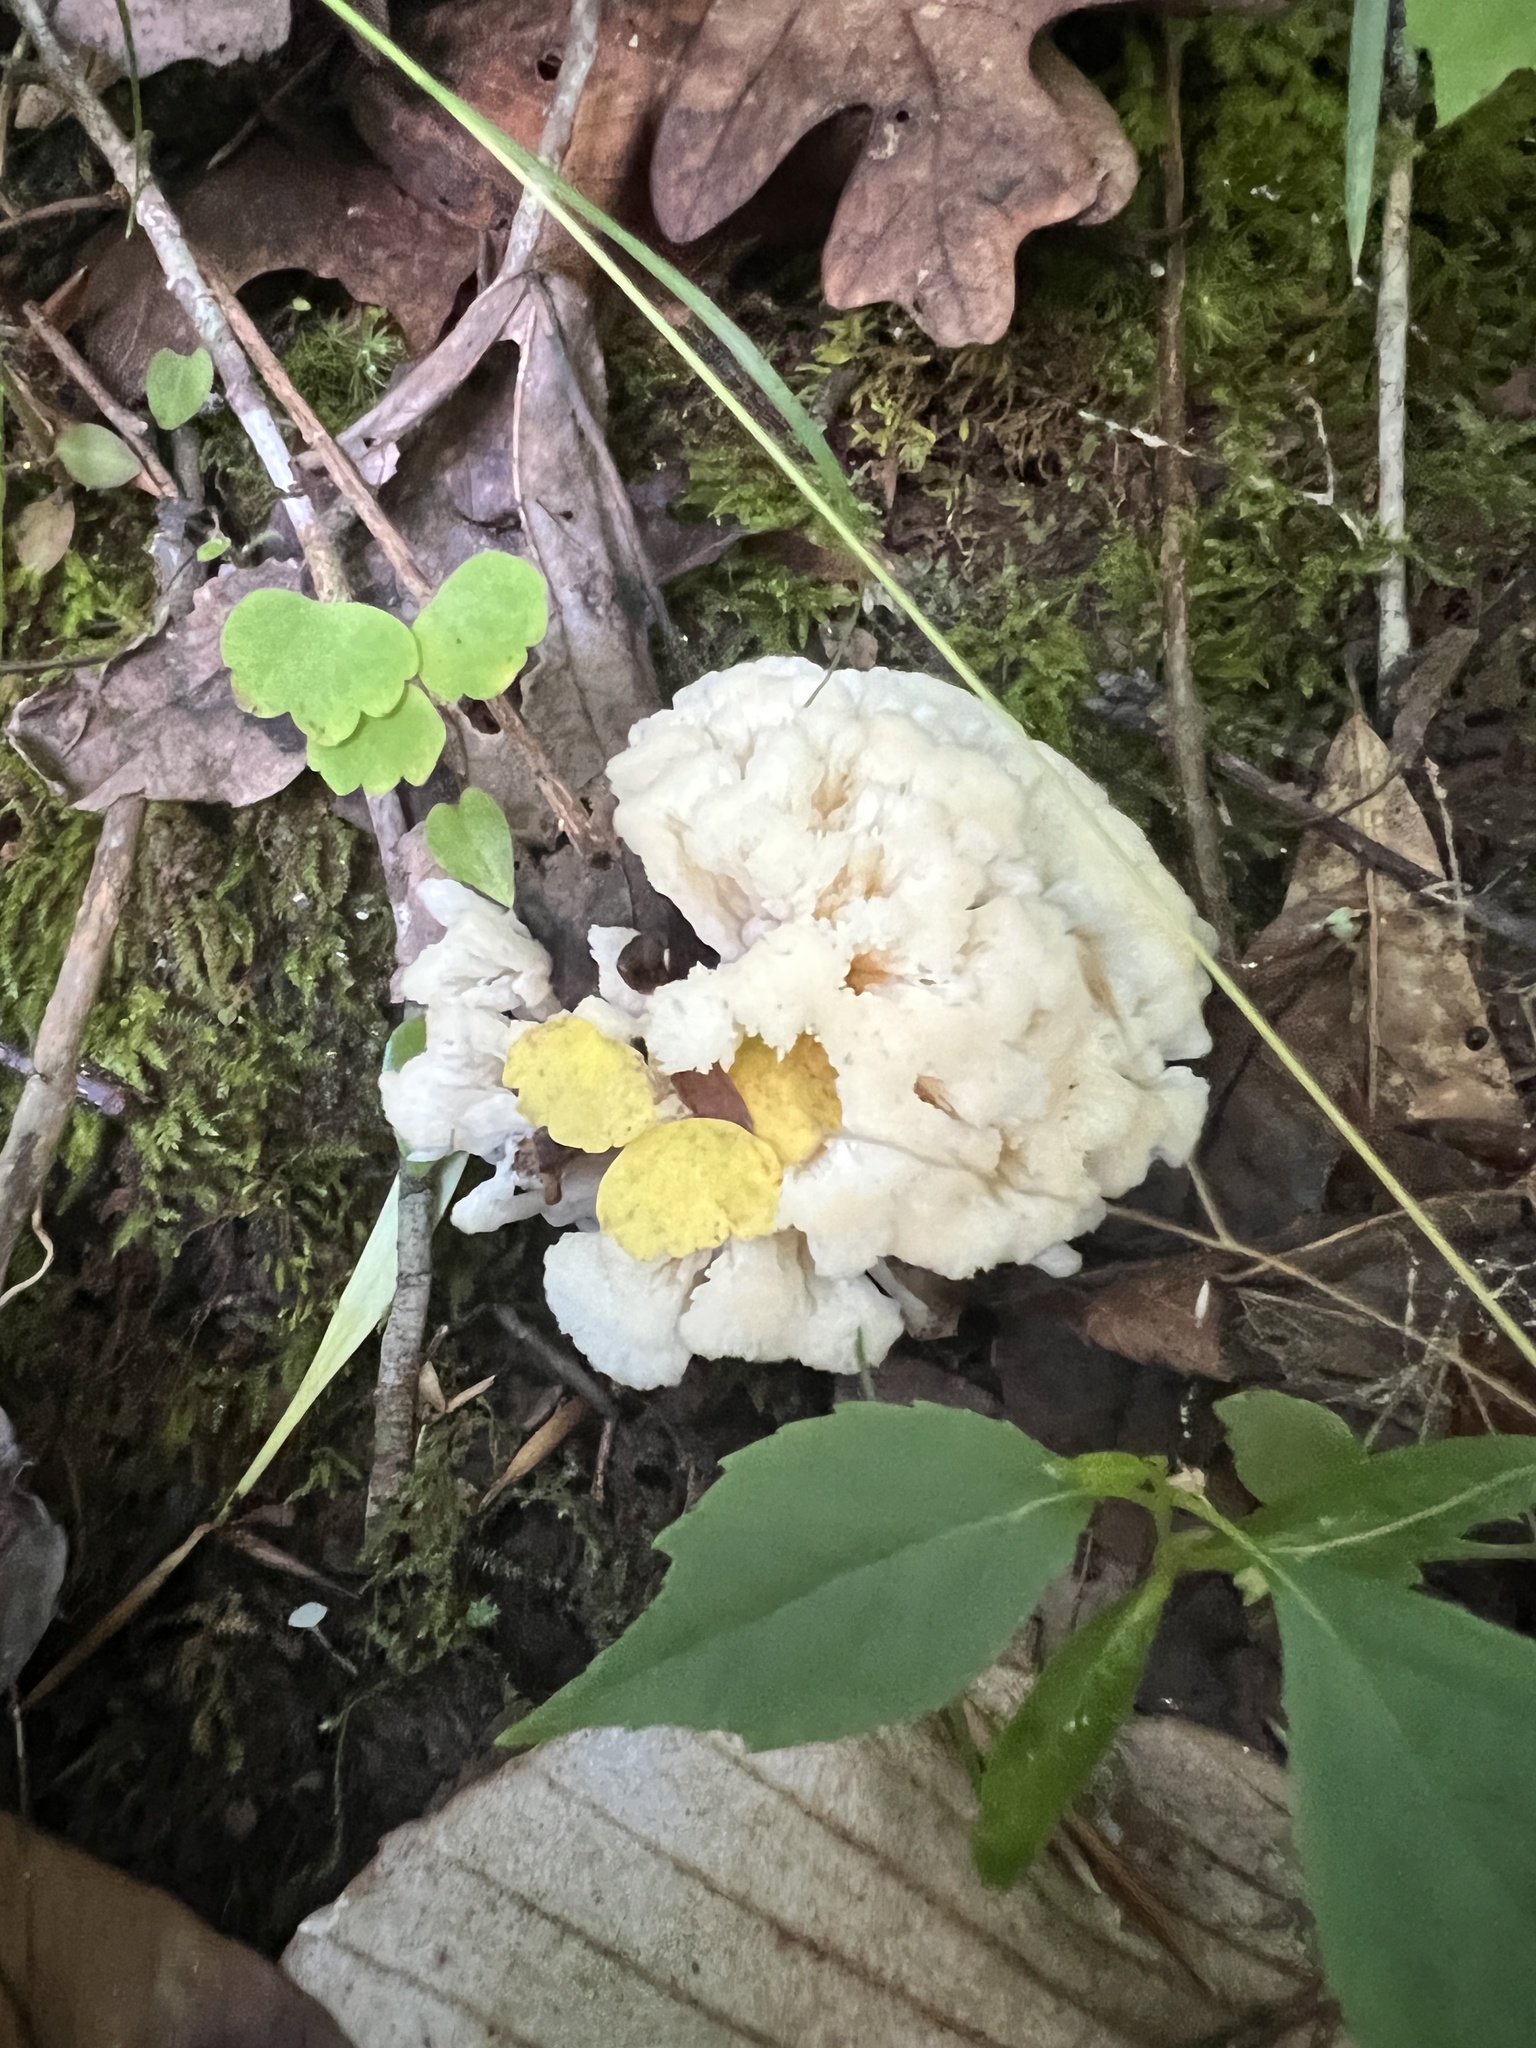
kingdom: Fungi
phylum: Basidiomycota
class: Agaricomycetes
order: Sebacinales
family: Sebacinaceae
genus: Sebacina
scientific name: Sebacina schweinitzii
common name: Jellied false coral fungus
